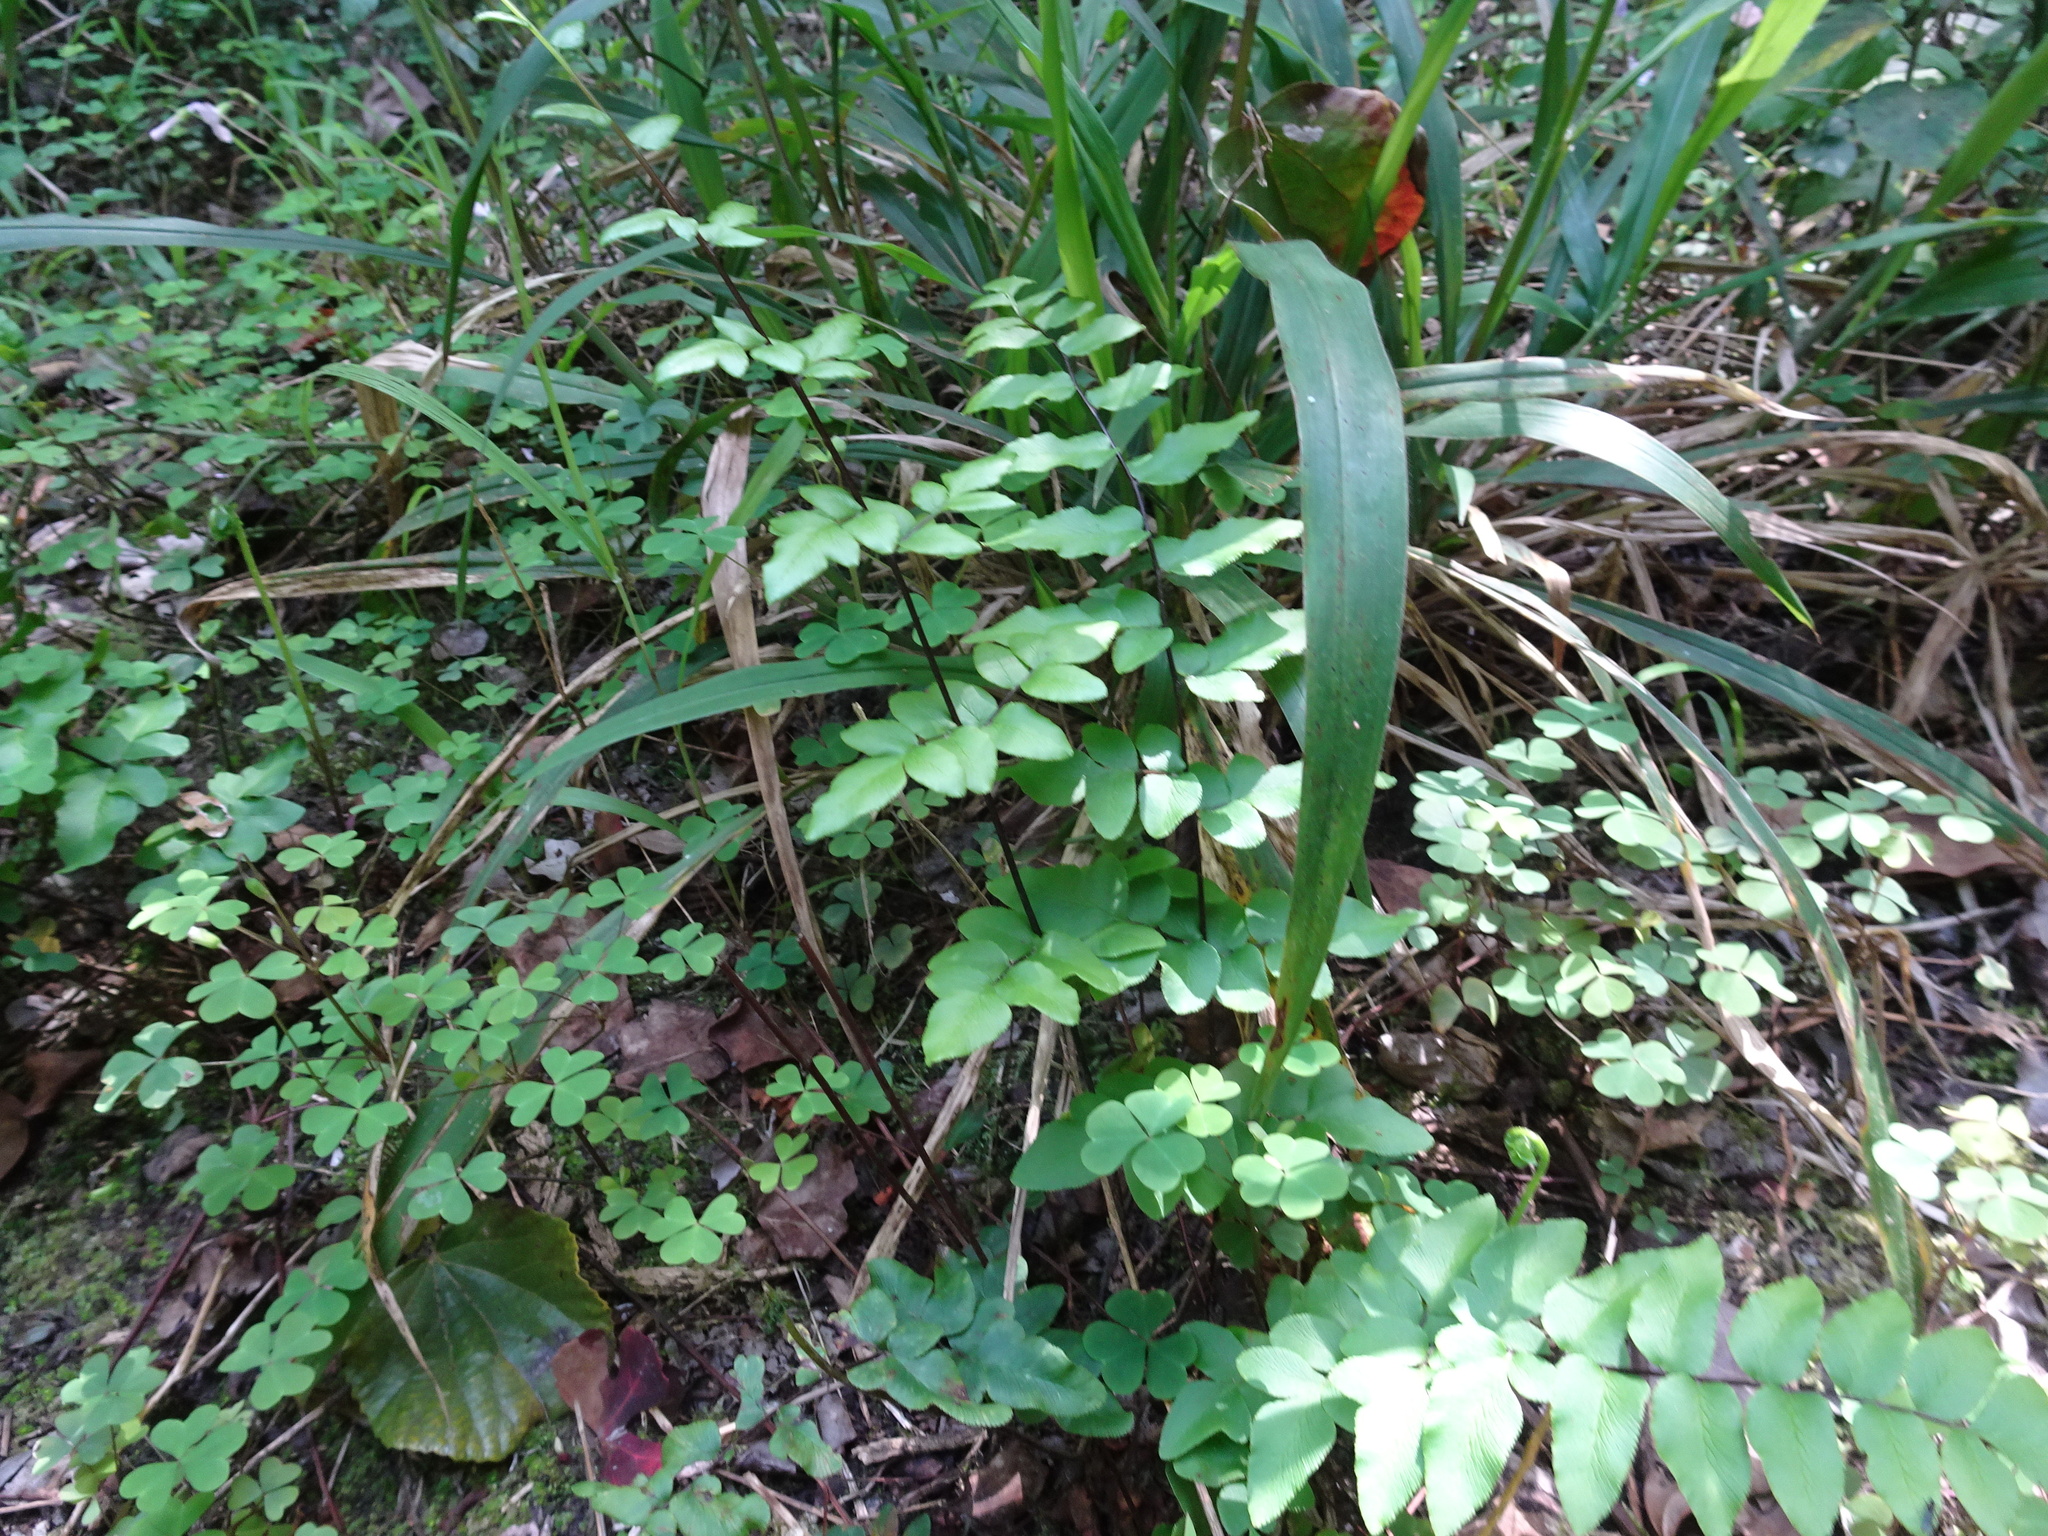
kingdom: Plantae
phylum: Tracheophyta
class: Polypodiopsida
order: Polypodiales
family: Pteridaceae
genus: Cheilanthes
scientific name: Cheilanthes viridis
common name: Green cliffbrake
